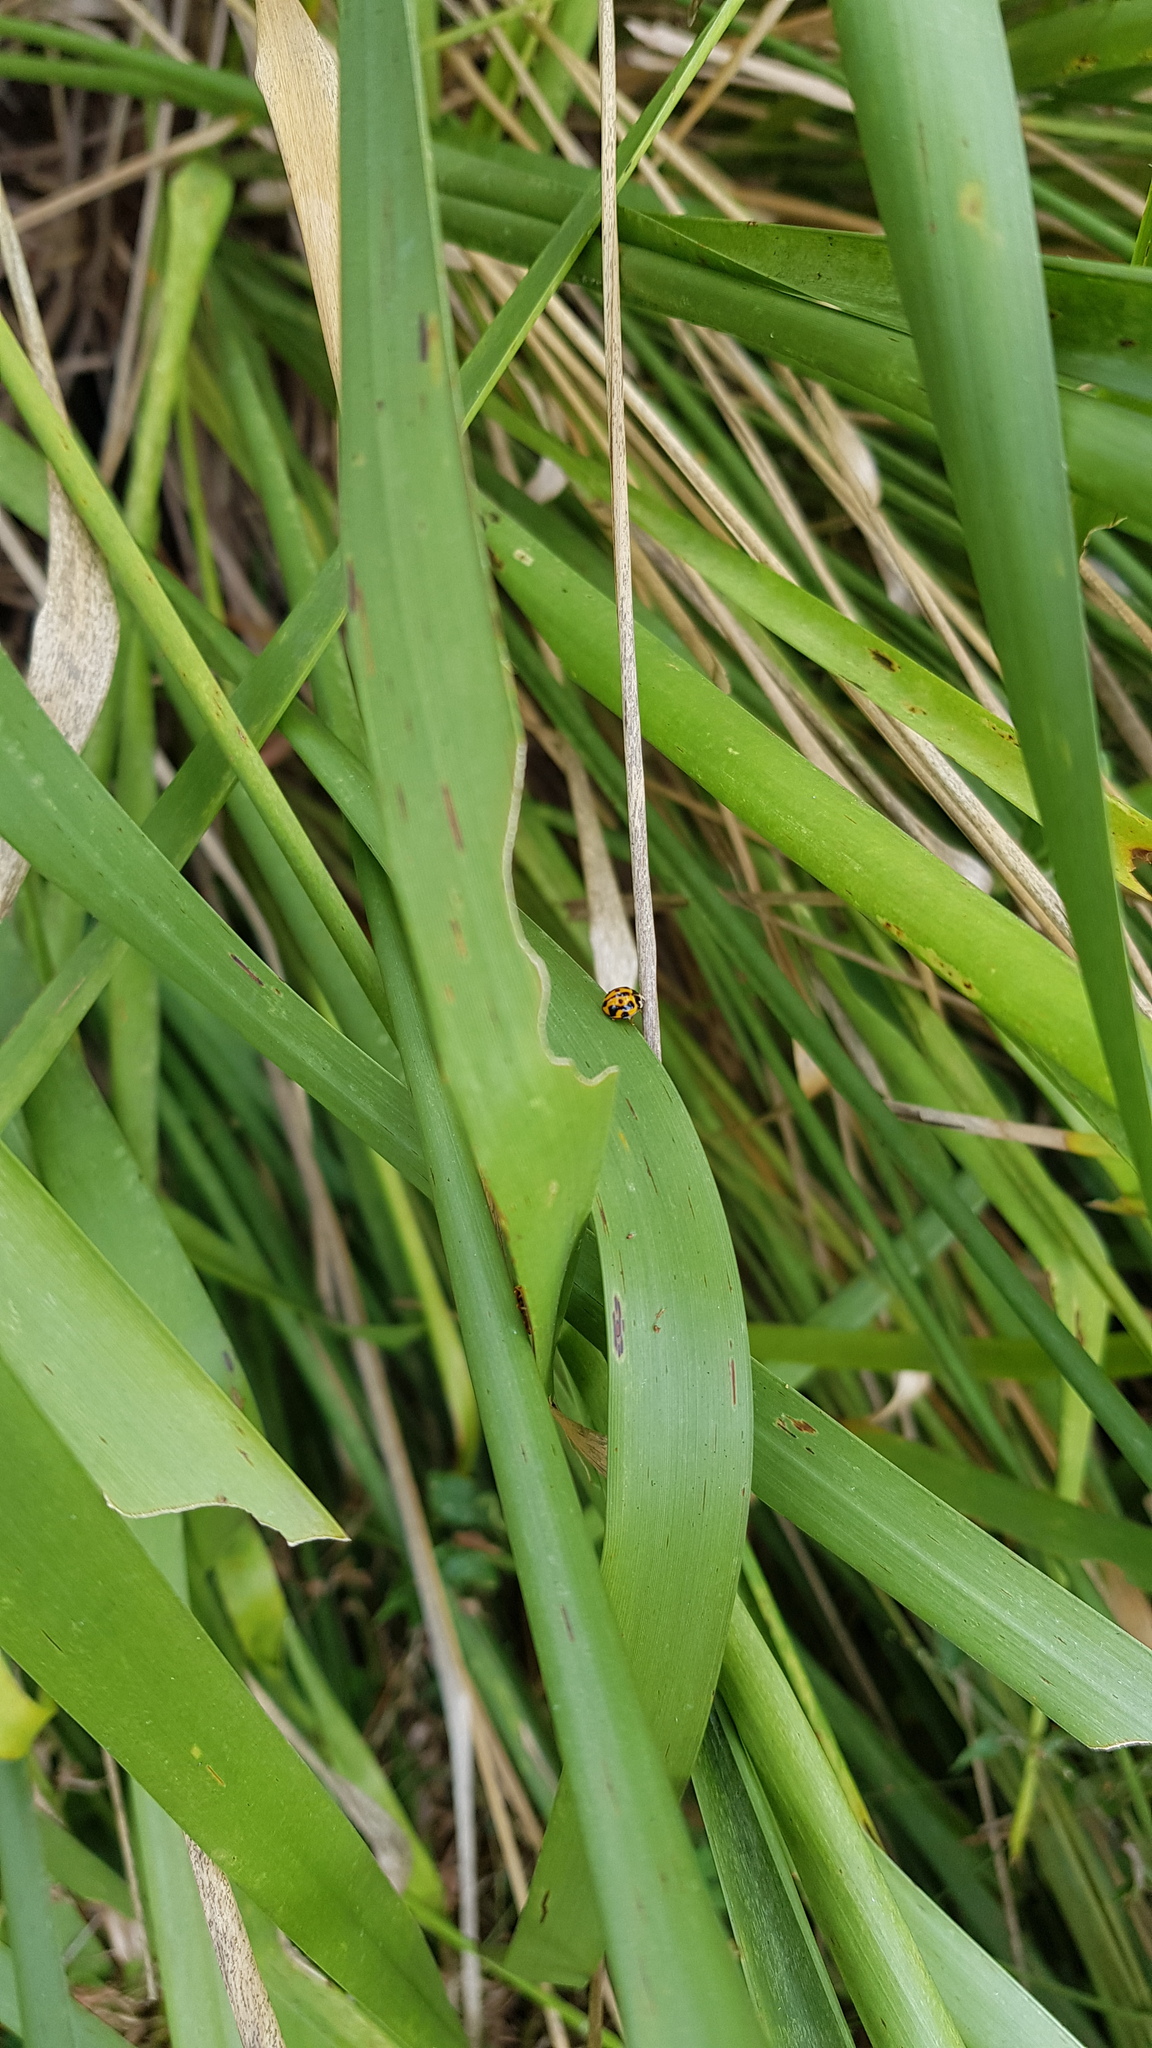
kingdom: Animalia
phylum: Arthropoda
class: Insecta
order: Coleoptera
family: Coccinellidae
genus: Coelophora
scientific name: Coelophora inaequalis
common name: Common australian lady beetle
